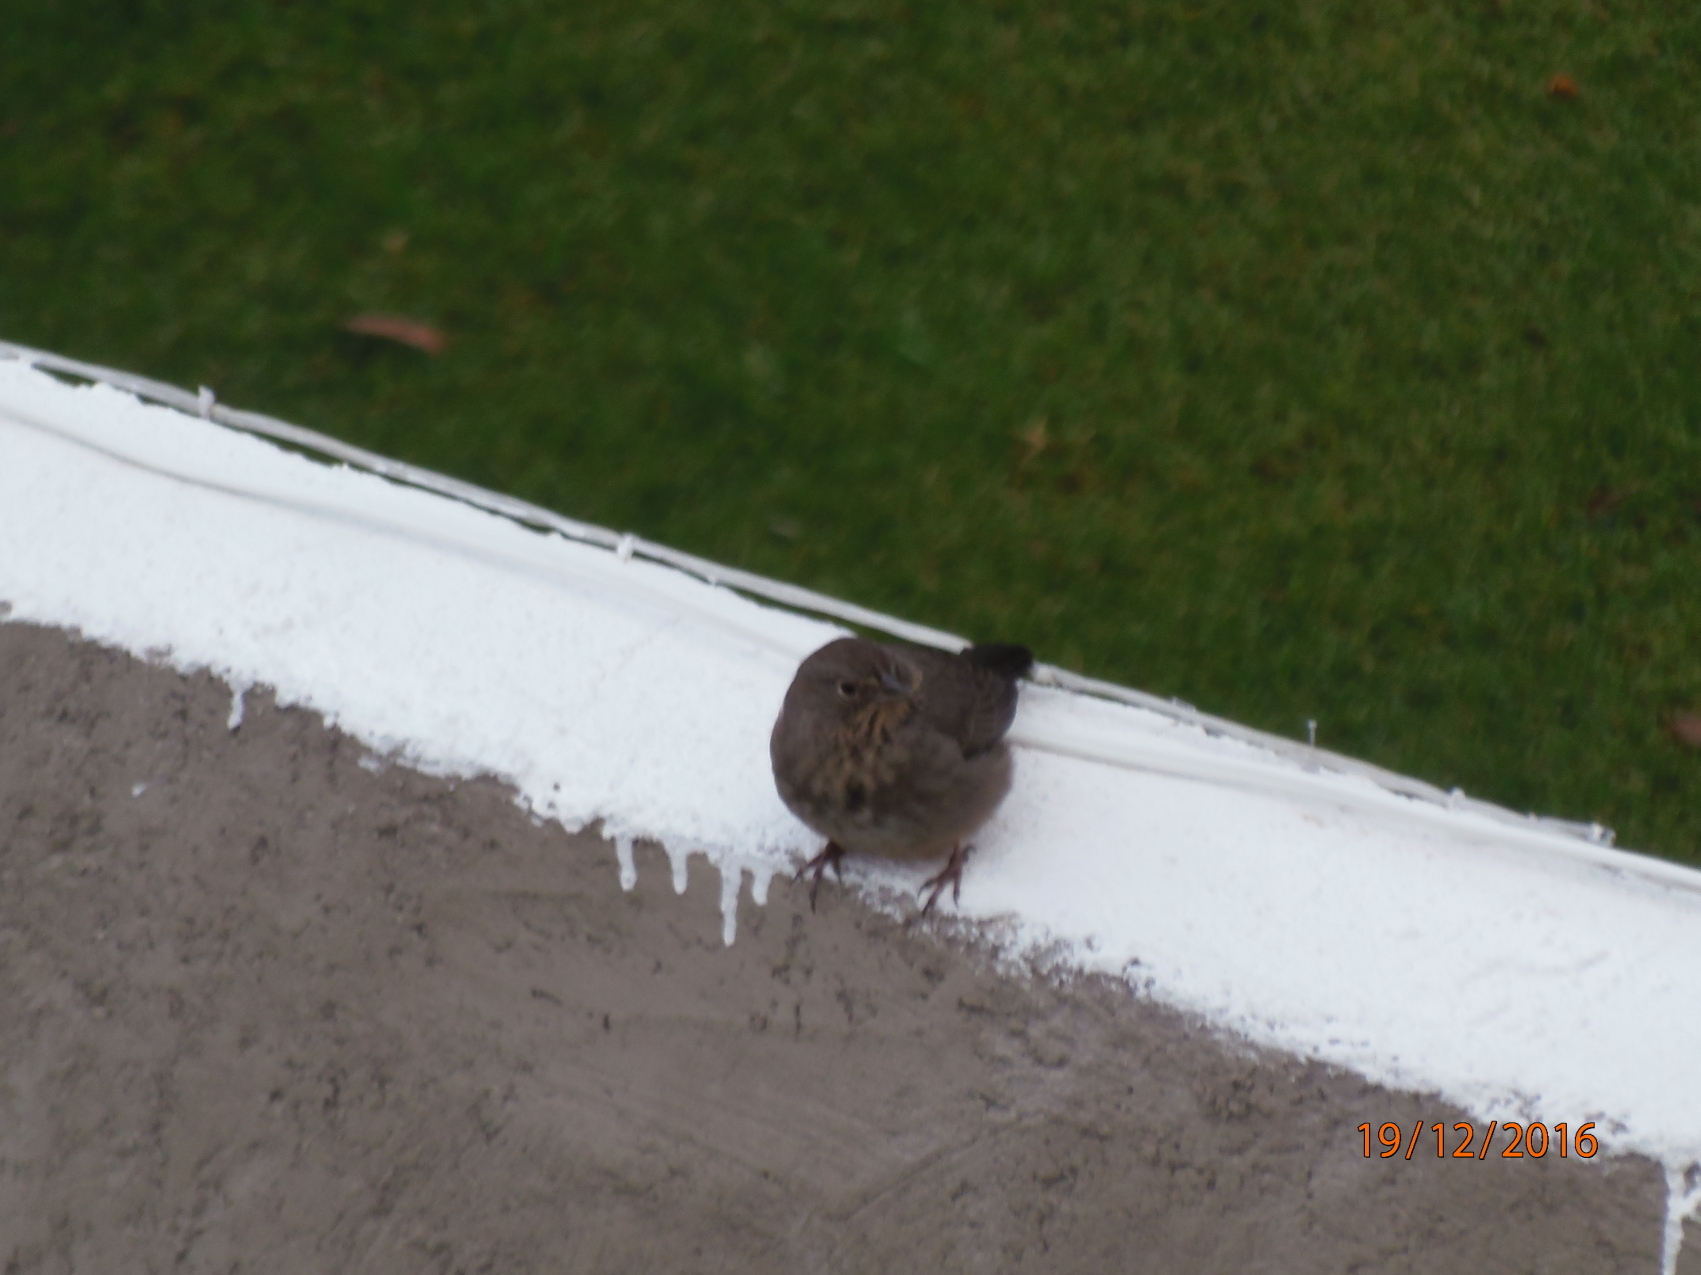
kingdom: Animalia
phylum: Chordata
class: Aves
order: Passeriformes
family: Passerellidae
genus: Melozone
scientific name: Melozone fusca
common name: Canyon towhee
